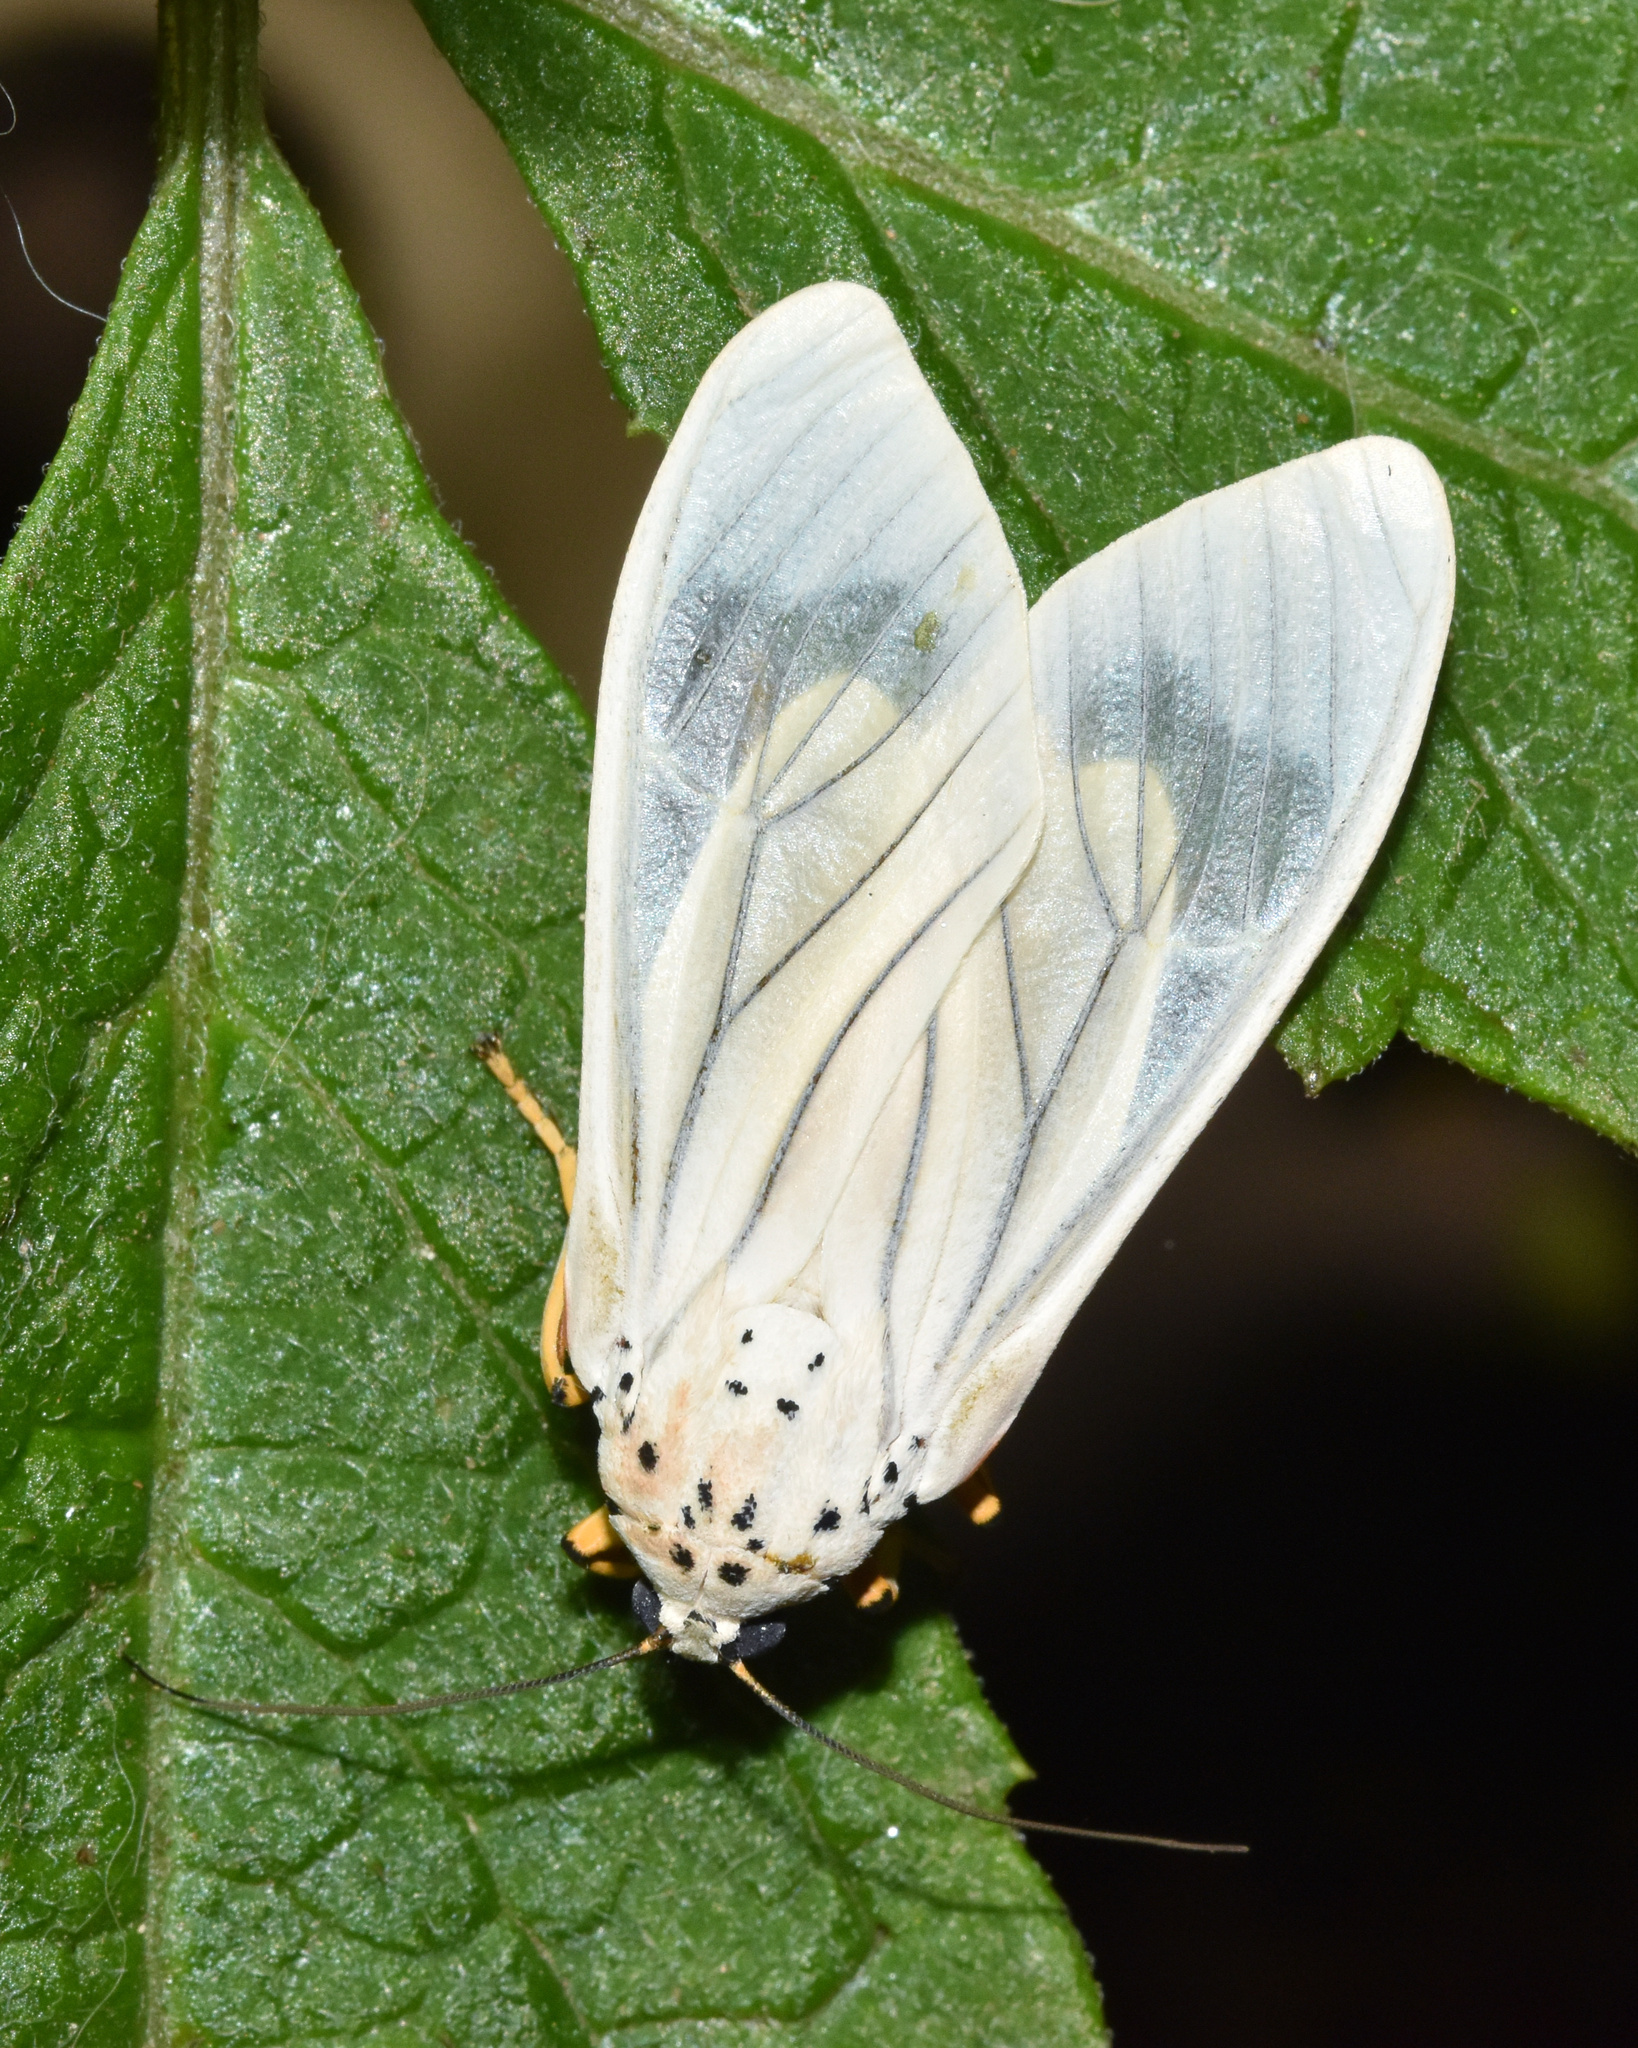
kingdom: Animalia
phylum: Arthropoda
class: Insecta
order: Lepidoptera
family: Erebidae
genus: Amerila
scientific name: Amerila bubo
